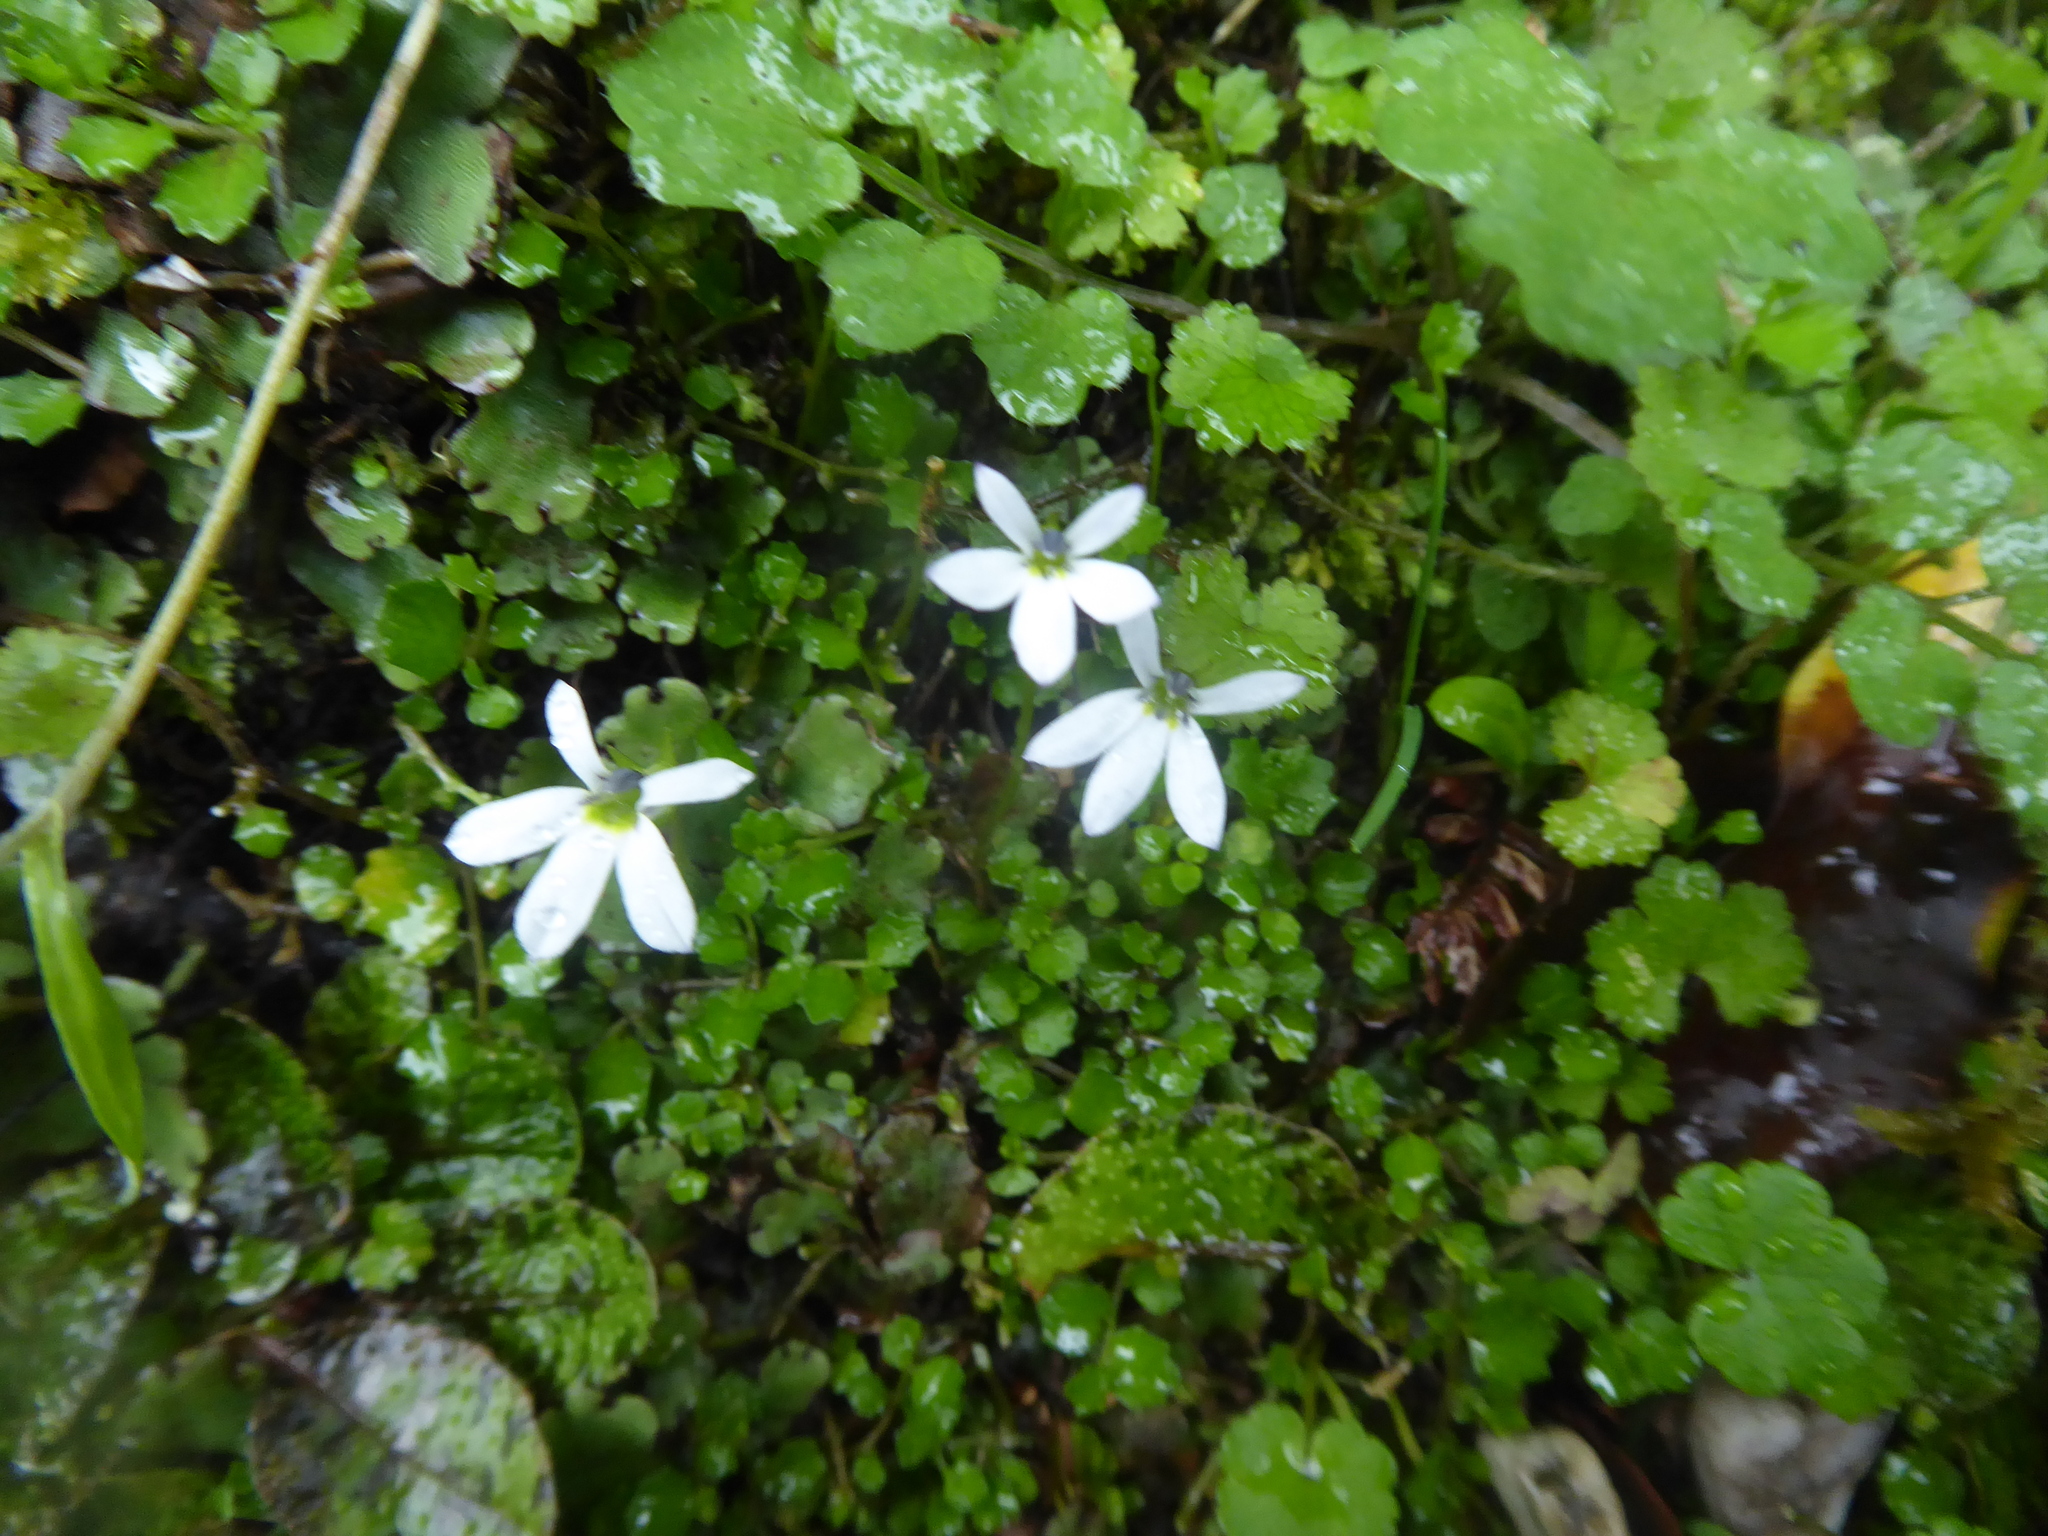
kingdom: Plantae
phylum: Tracheophyta
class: Magnoliopsida
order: Asterales
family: Campanulaceae
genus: Lobelia
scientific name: Lobelia angulata
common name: Lawn lobelia
